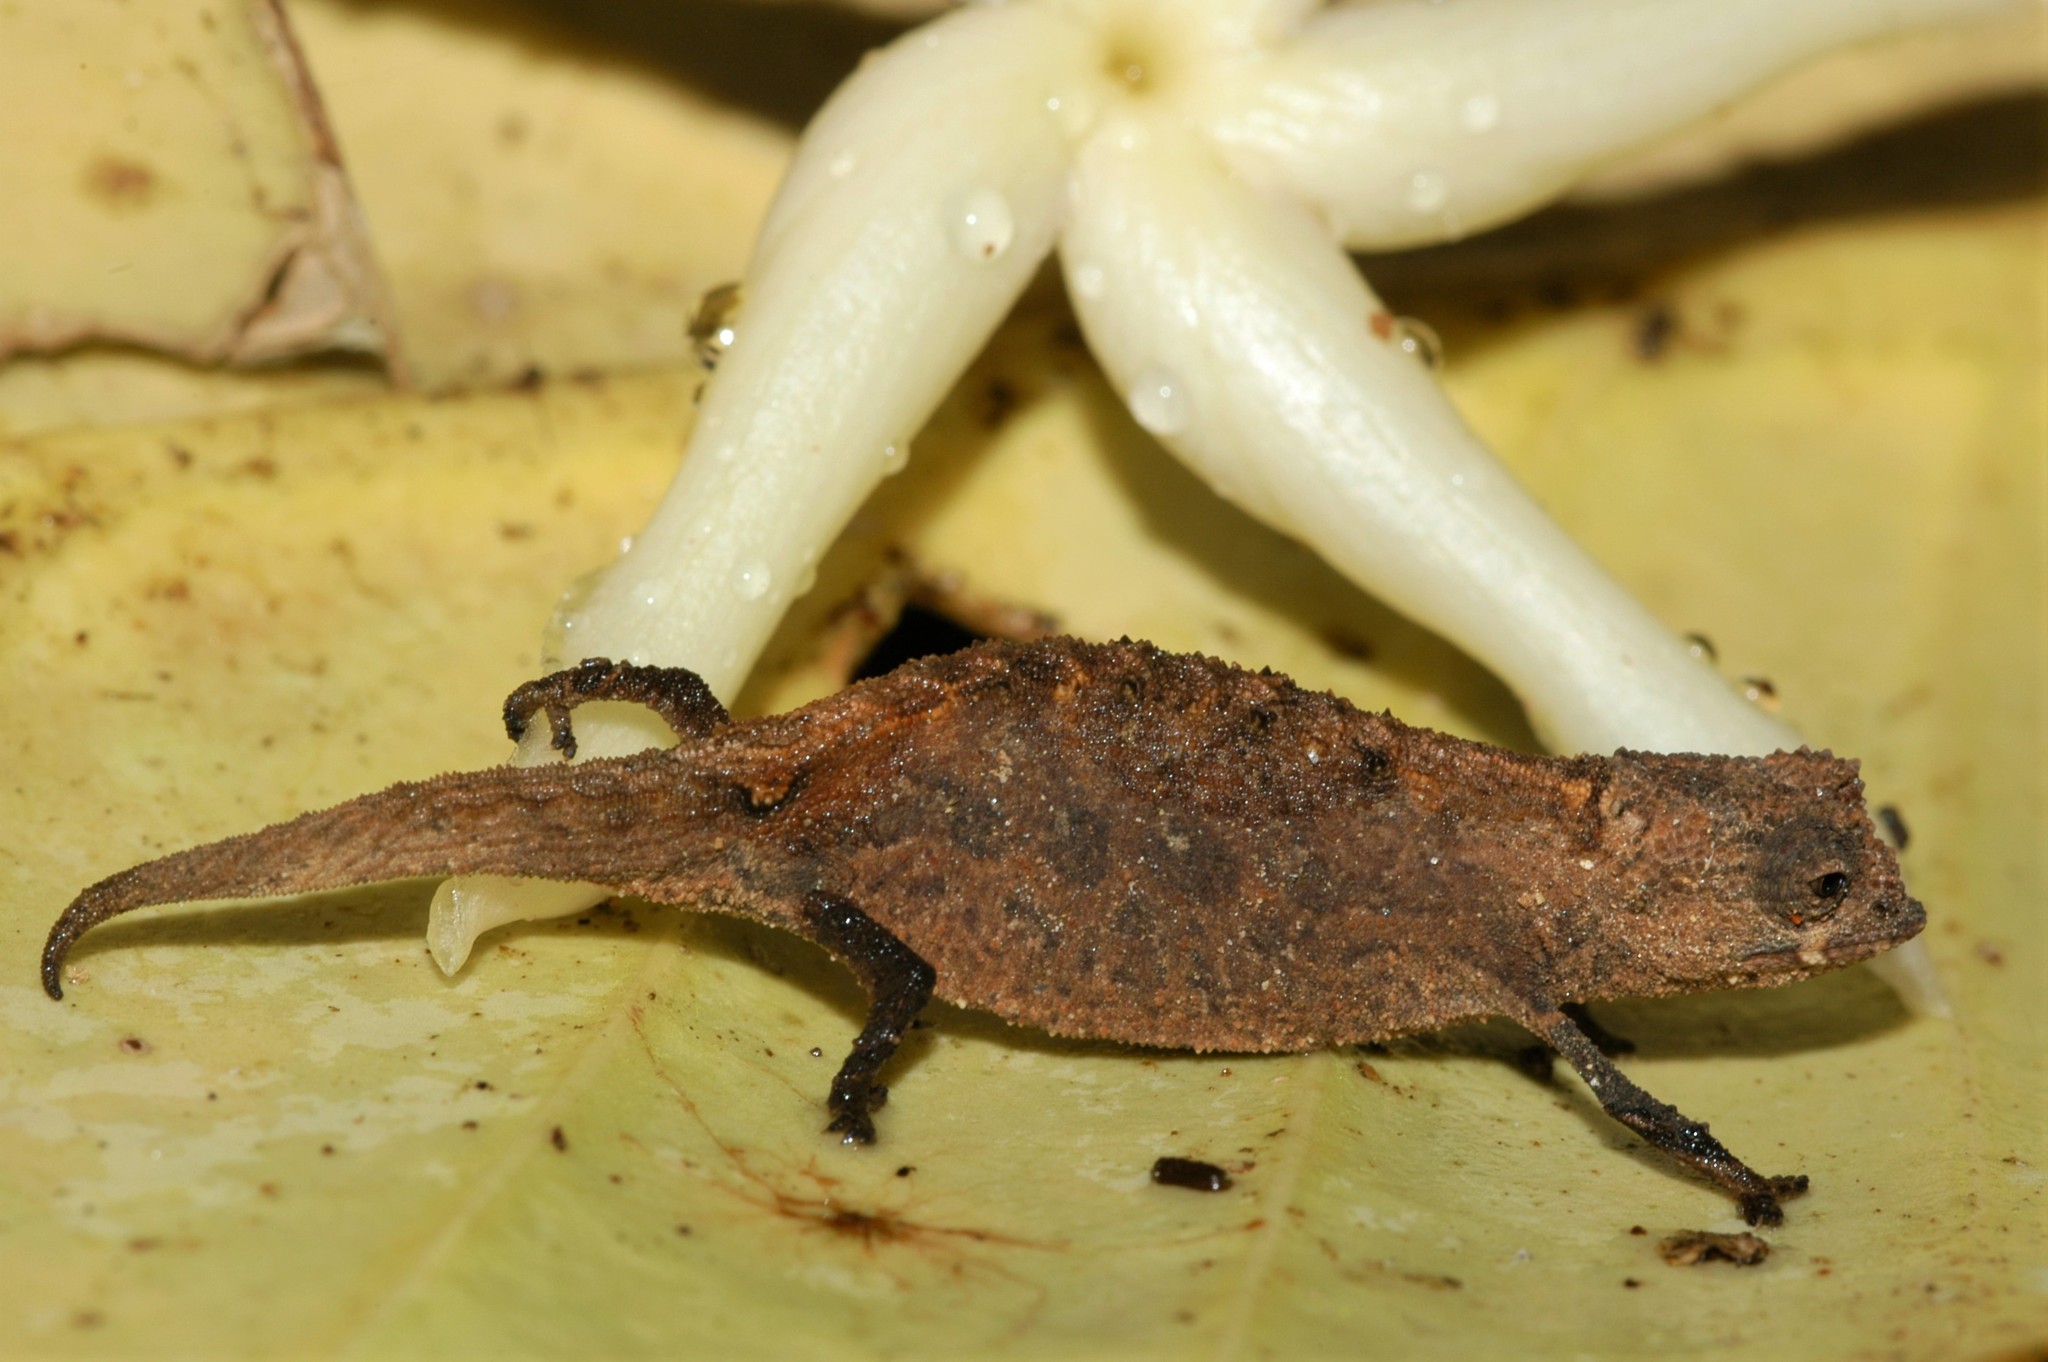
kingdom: Animalia
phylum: Chordata
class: Squamata
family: Chamaeleonidae
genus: Brookesia
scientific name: Brookesia peyrierasi
